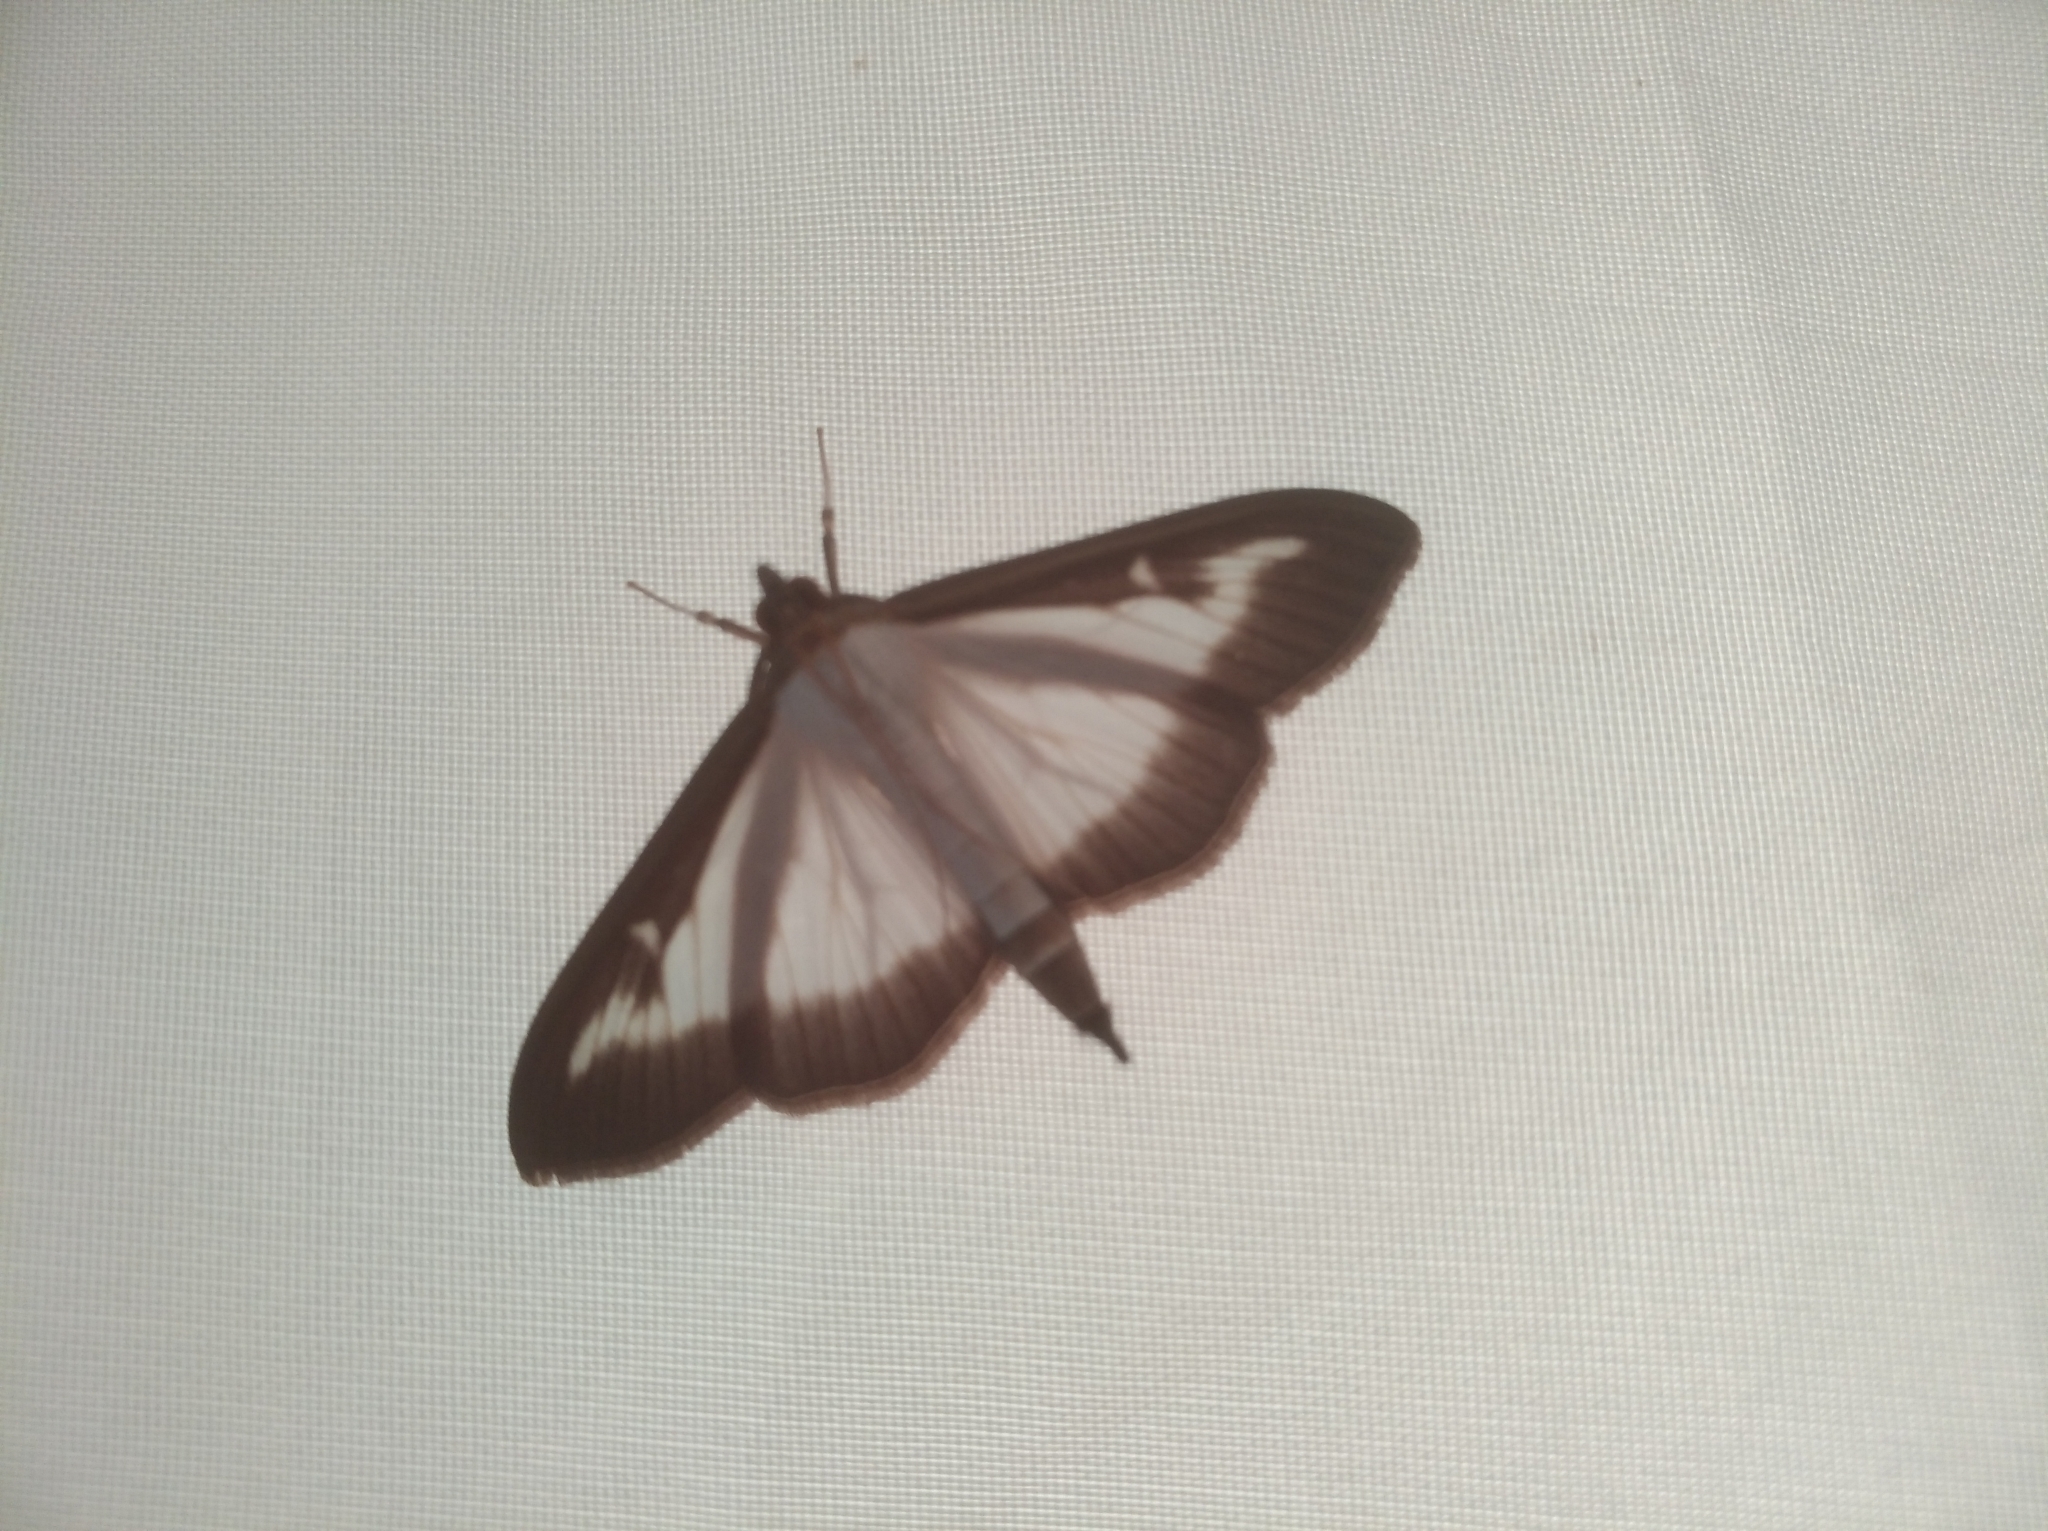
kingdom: Animalia
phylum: Arthropoda
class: Insecta
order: Lepidoptera
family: Crambidae
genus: Cydalima
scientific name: Cydalima perspectalis
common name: Box tree moth
